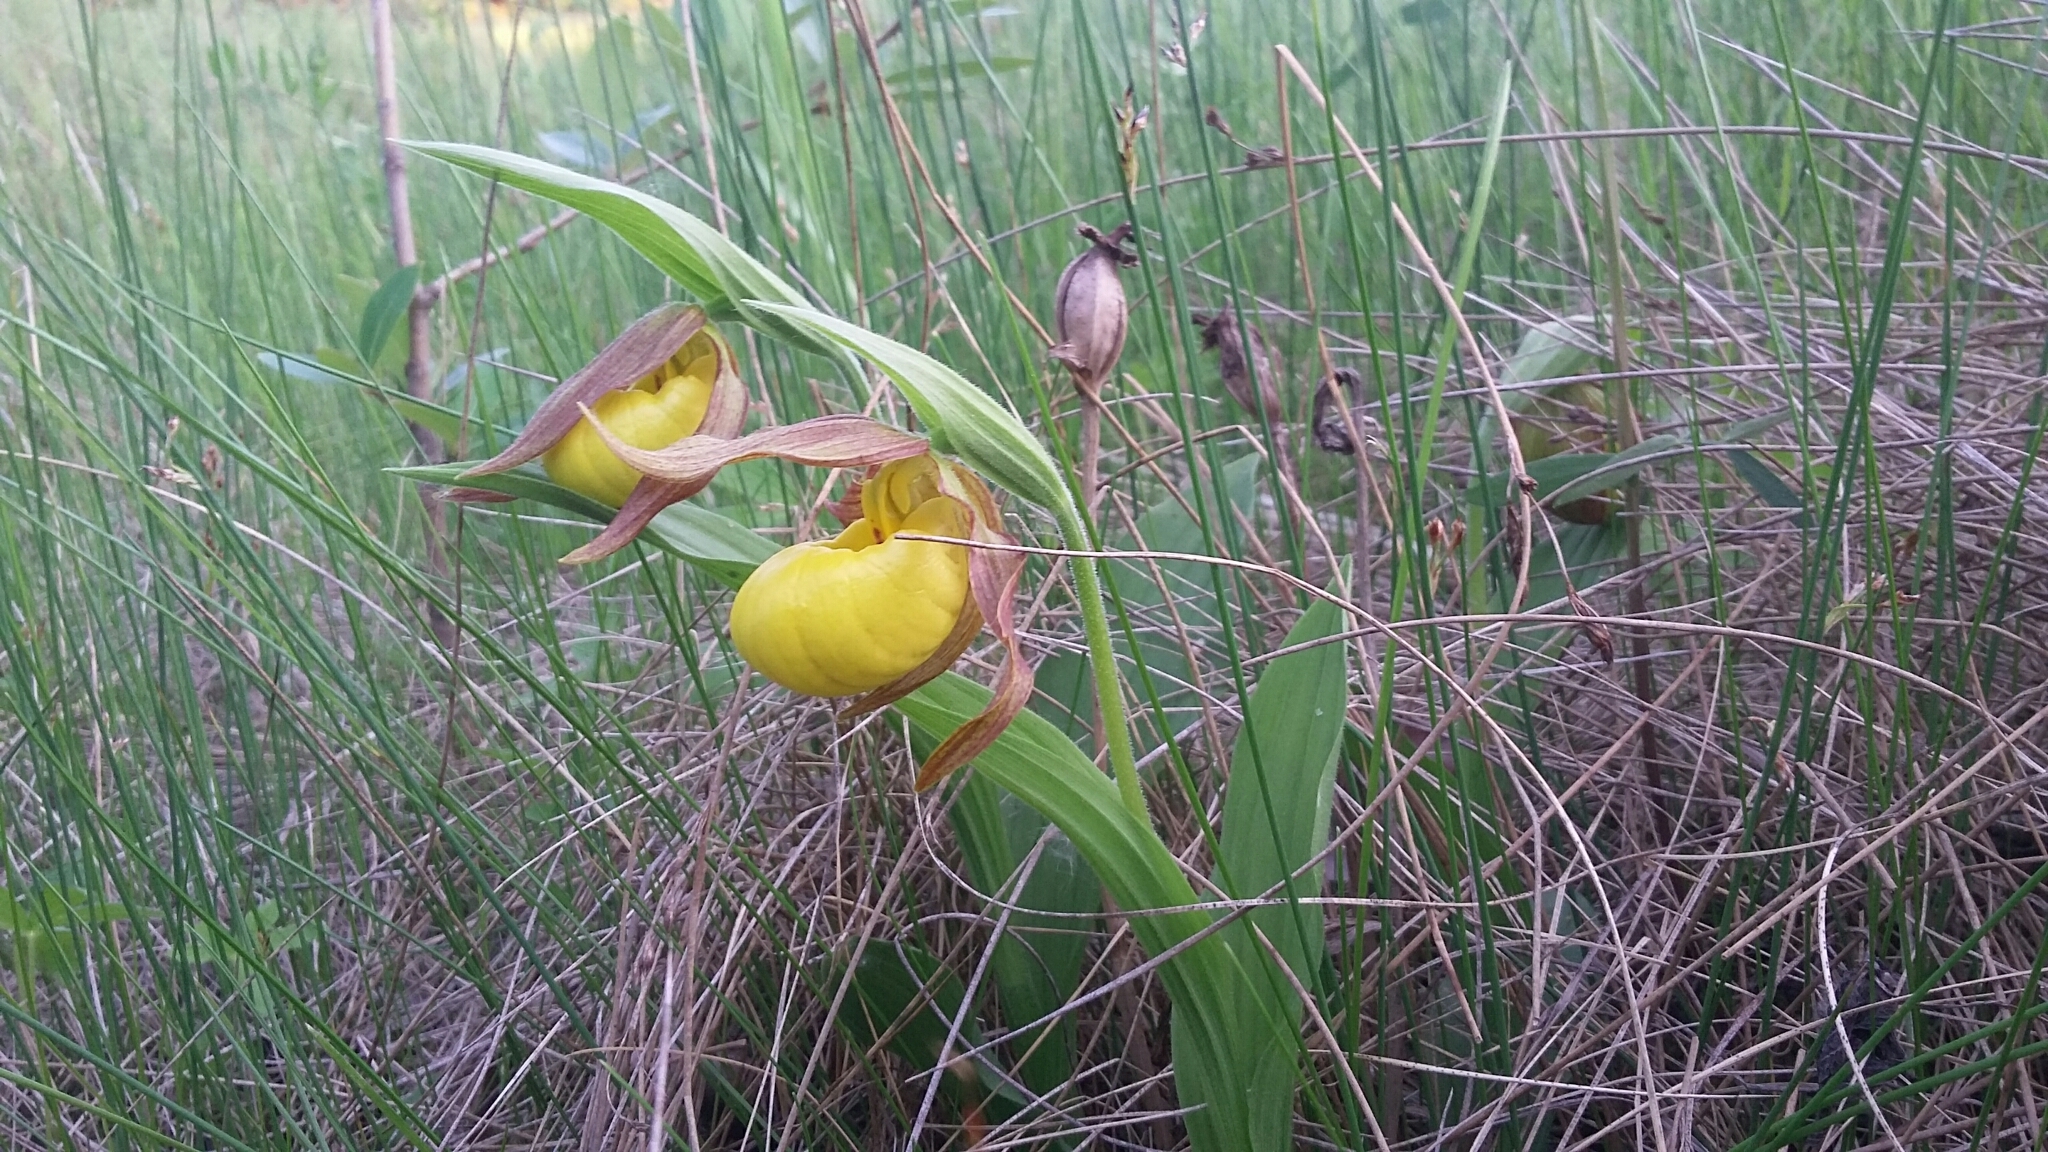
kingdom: Plantae
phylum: Tracheophyta
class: Liliopsida
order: Asparagales
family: Orchidaceae
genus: Cypripedium
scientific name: Cypripedium parviflorum
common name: American yellow lady's-slipper
